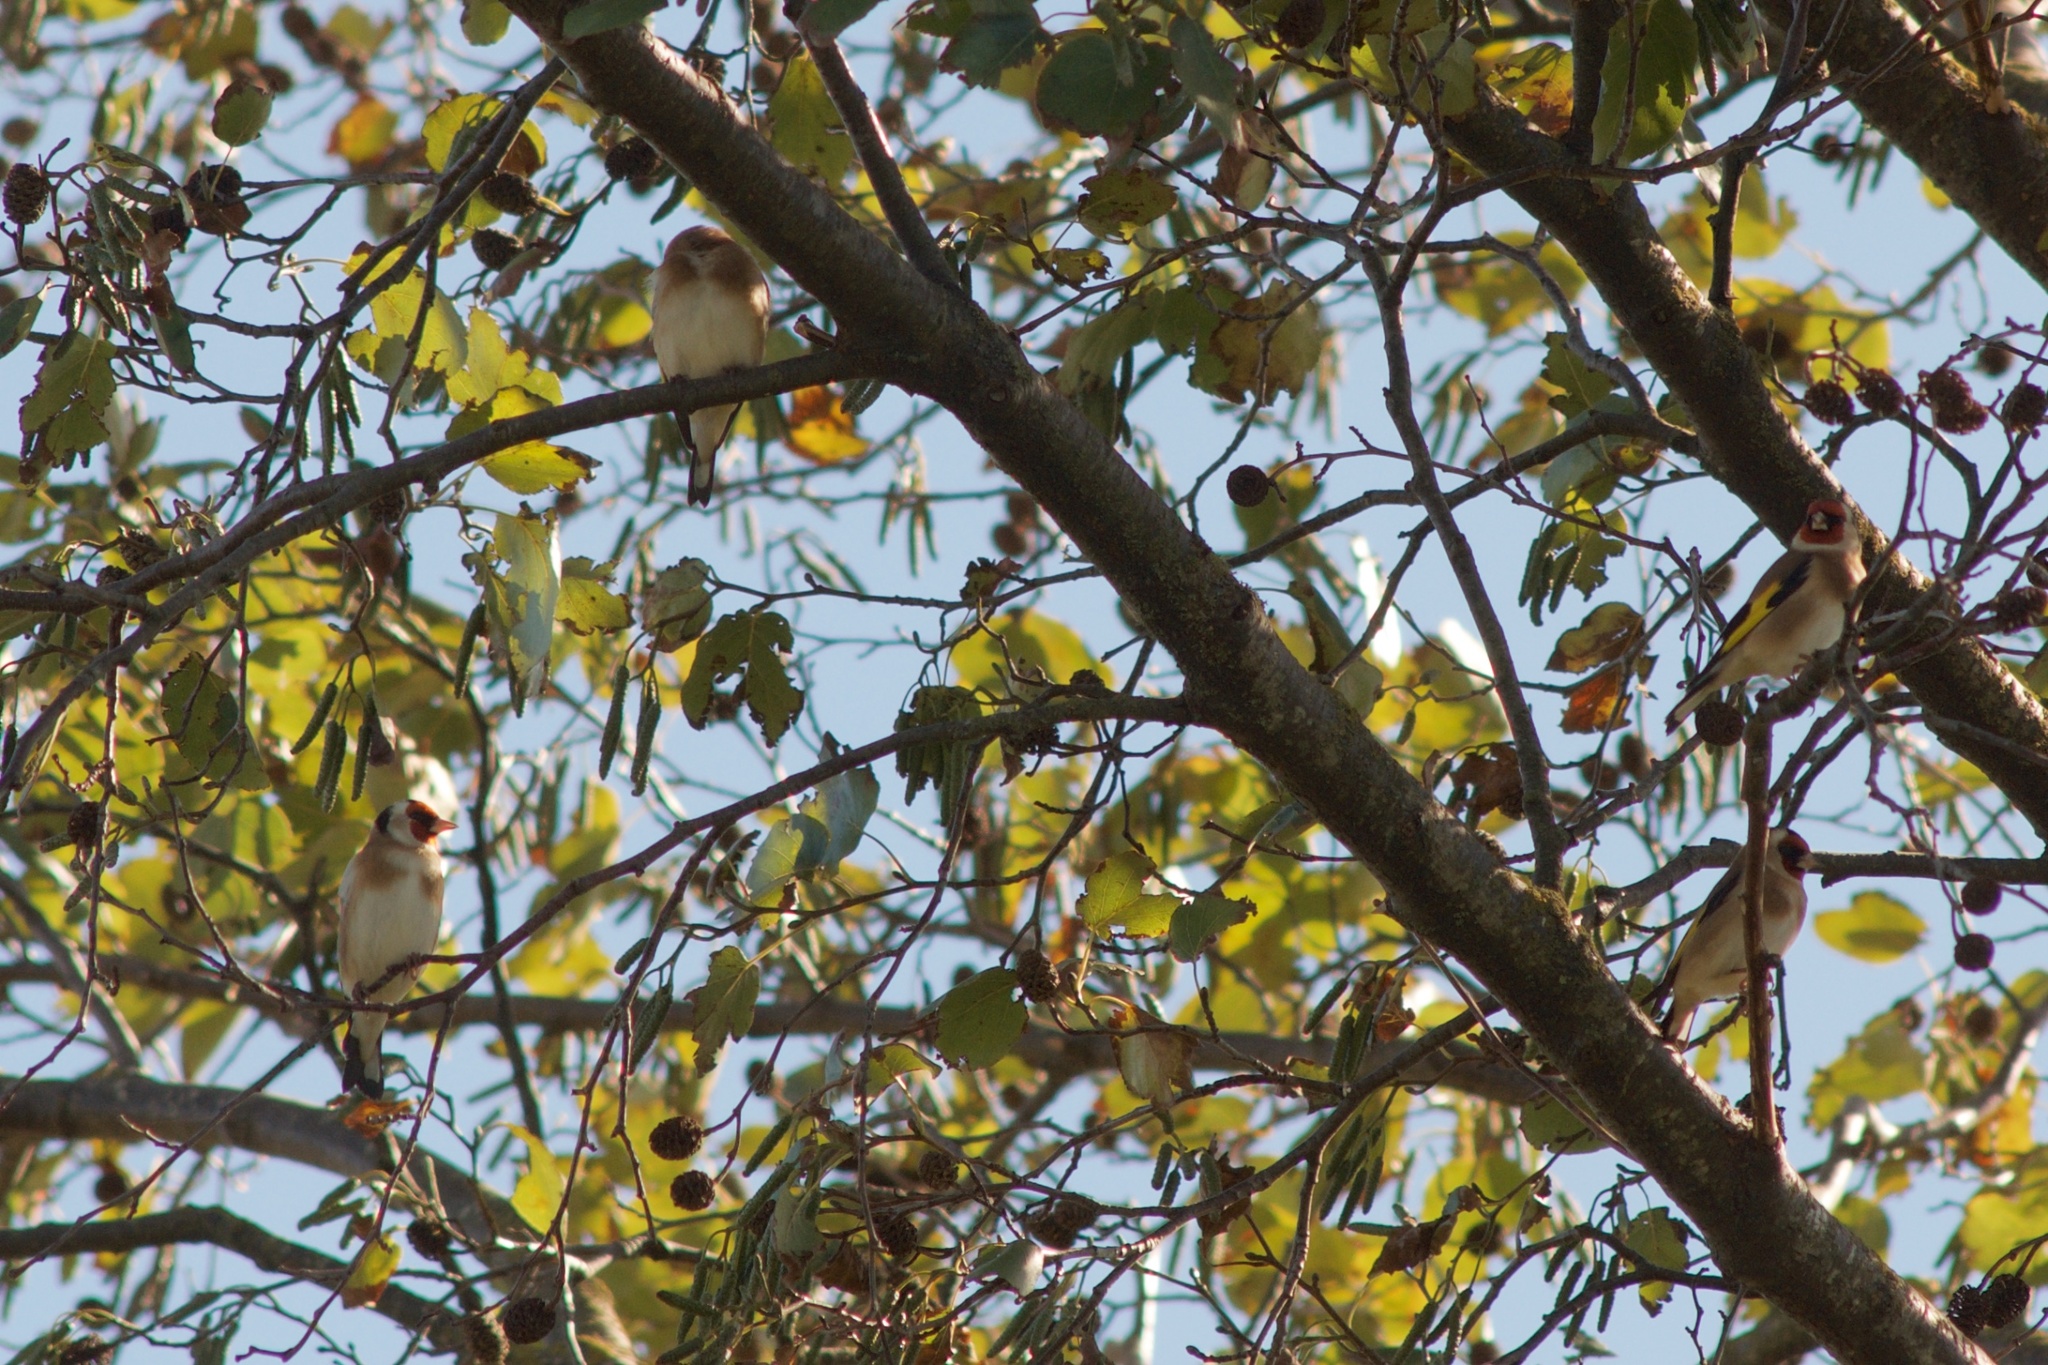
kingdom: Animalia
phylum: Chordata
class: Aves
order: Passeriformes
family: Fringillidae
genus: Carduelis
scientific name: Carduelis carduelis
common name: European goldfinch
